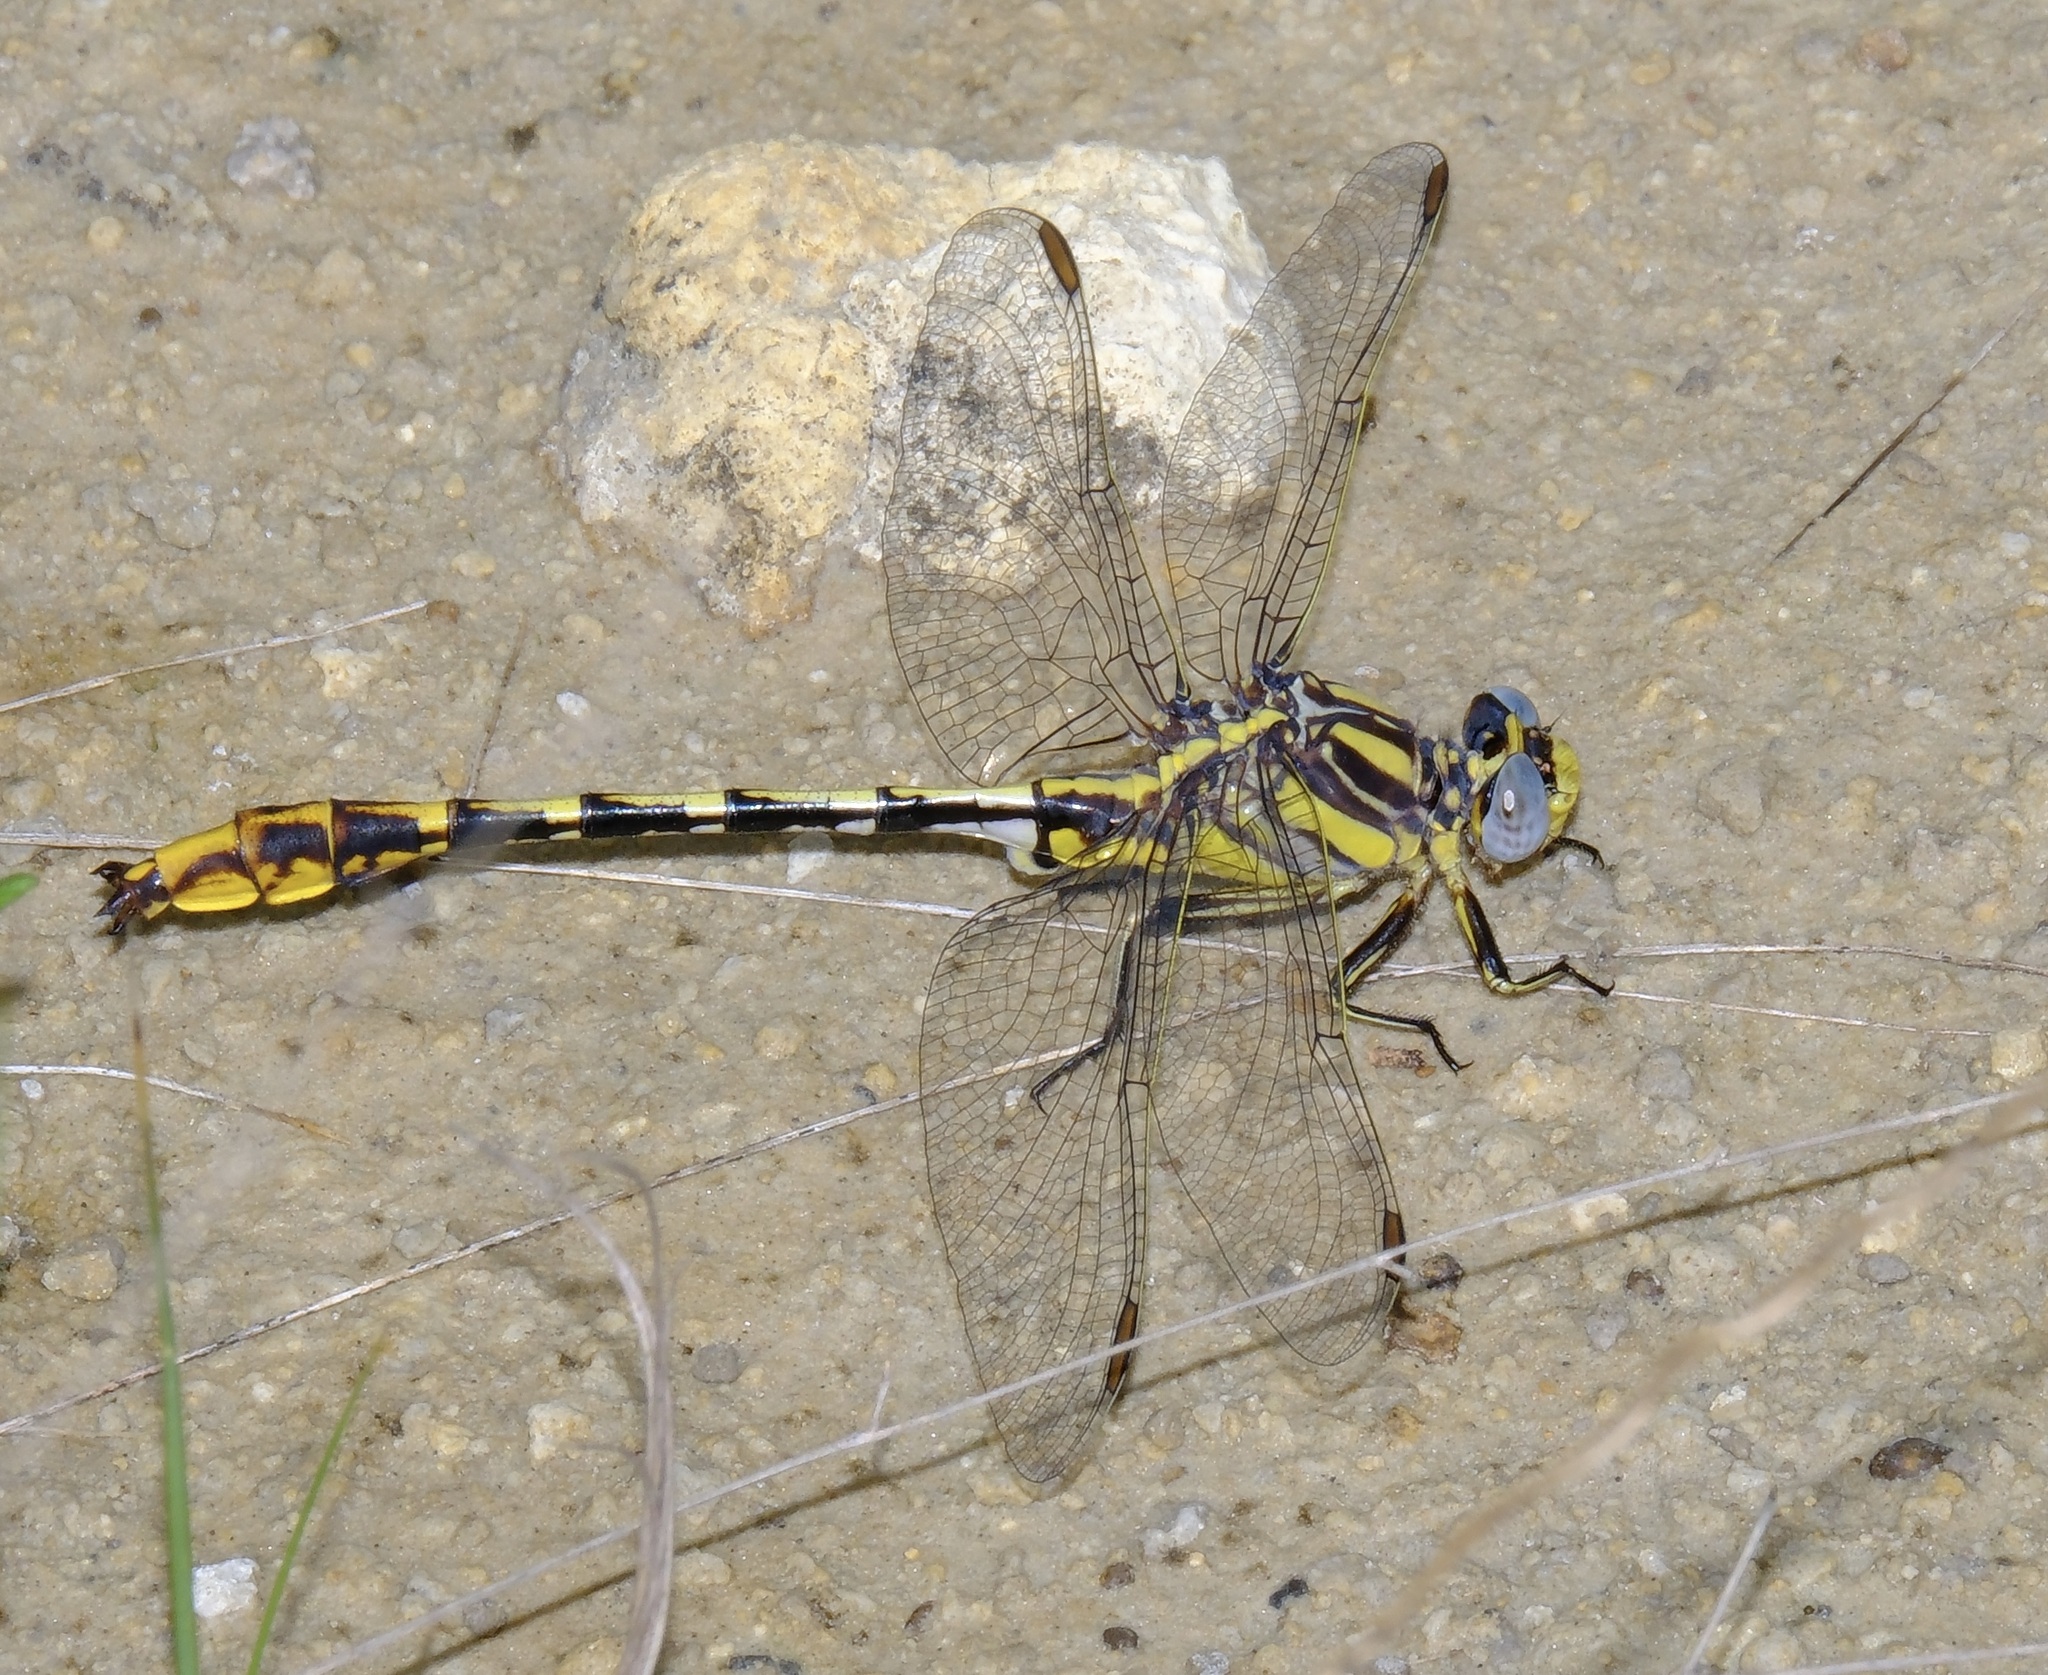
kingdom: Animalia
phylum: Arthropoda
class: Insecta
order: Odonata
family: Gomphidae
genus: Phanogomphus
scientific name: Phanogomphus militaris
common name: Sulphur-tipped clubtail
